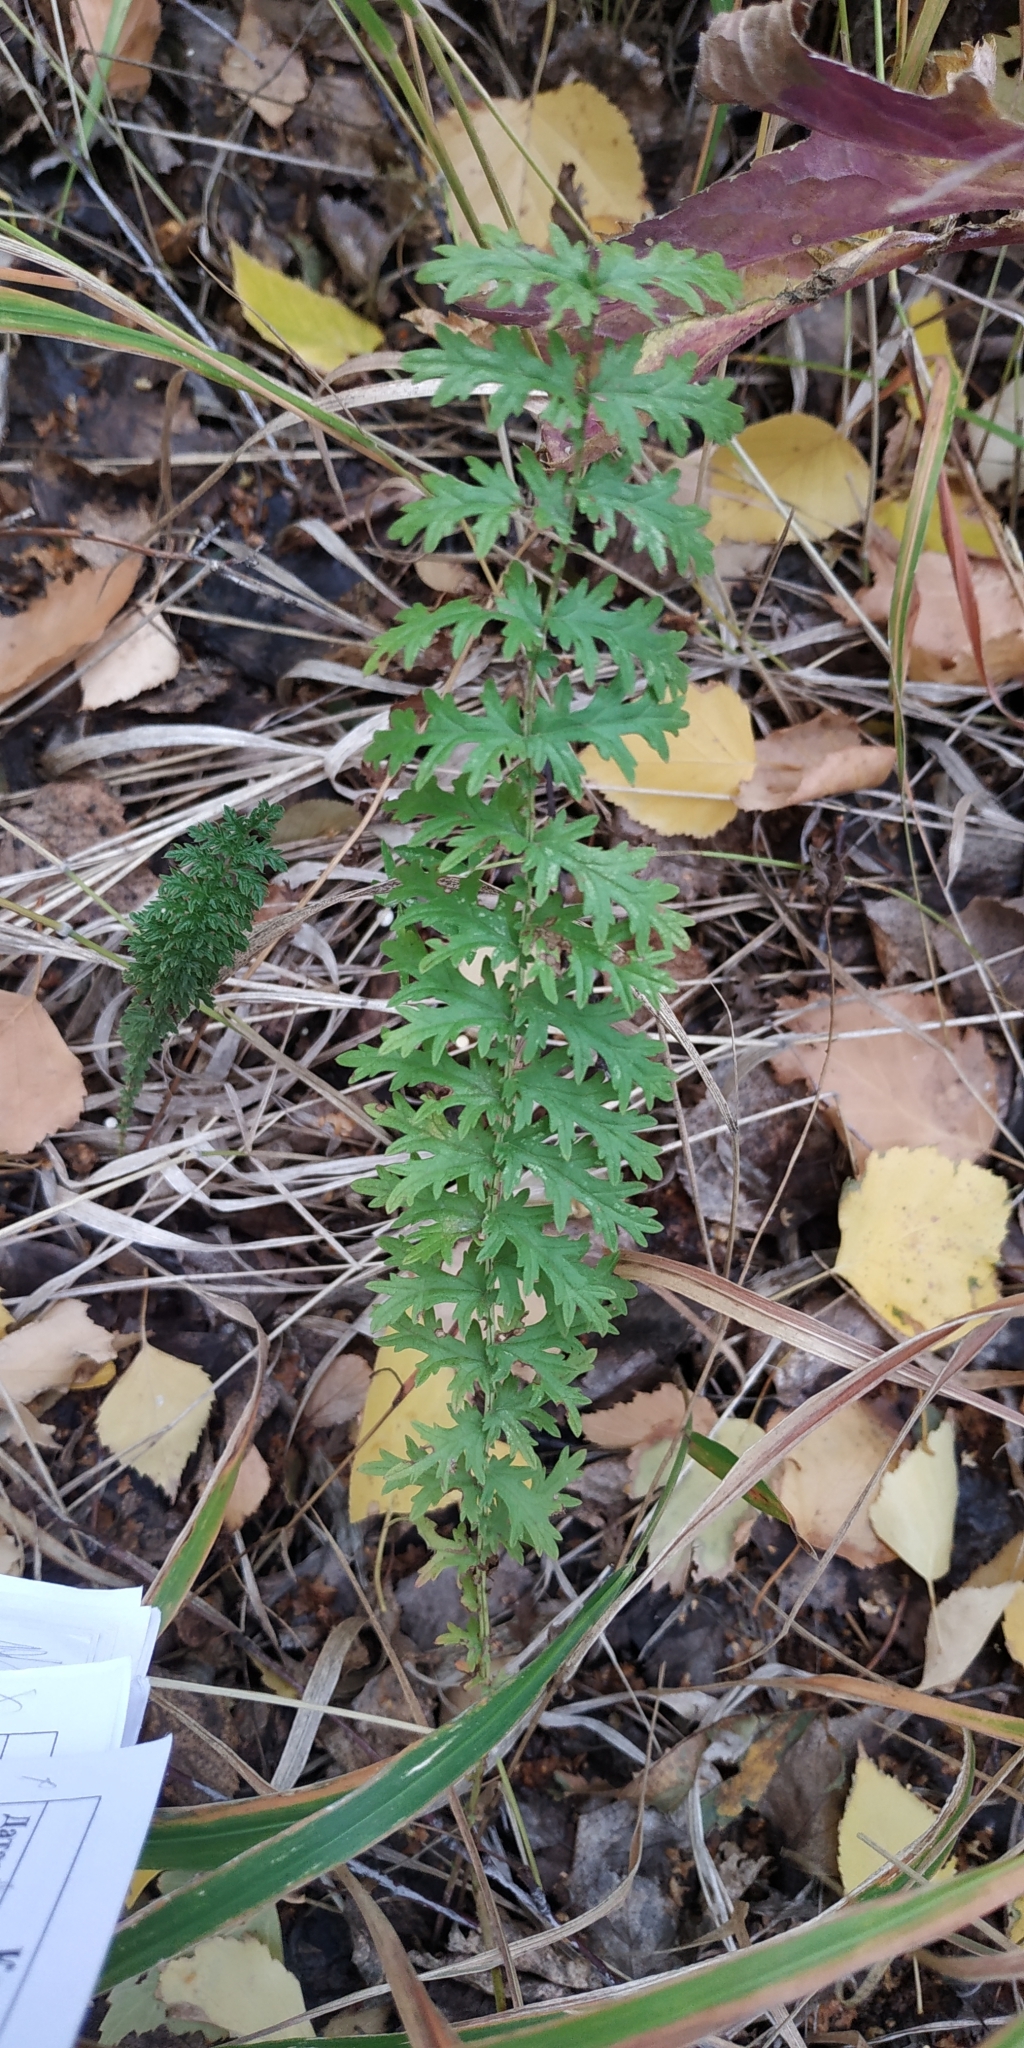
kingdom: Plantae
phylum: Tracheophyta
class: Magnoliopsida
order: Rosales
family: Rosaceae
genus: Filipendula
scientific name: Filipendula vulgaris
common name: Dropwort
